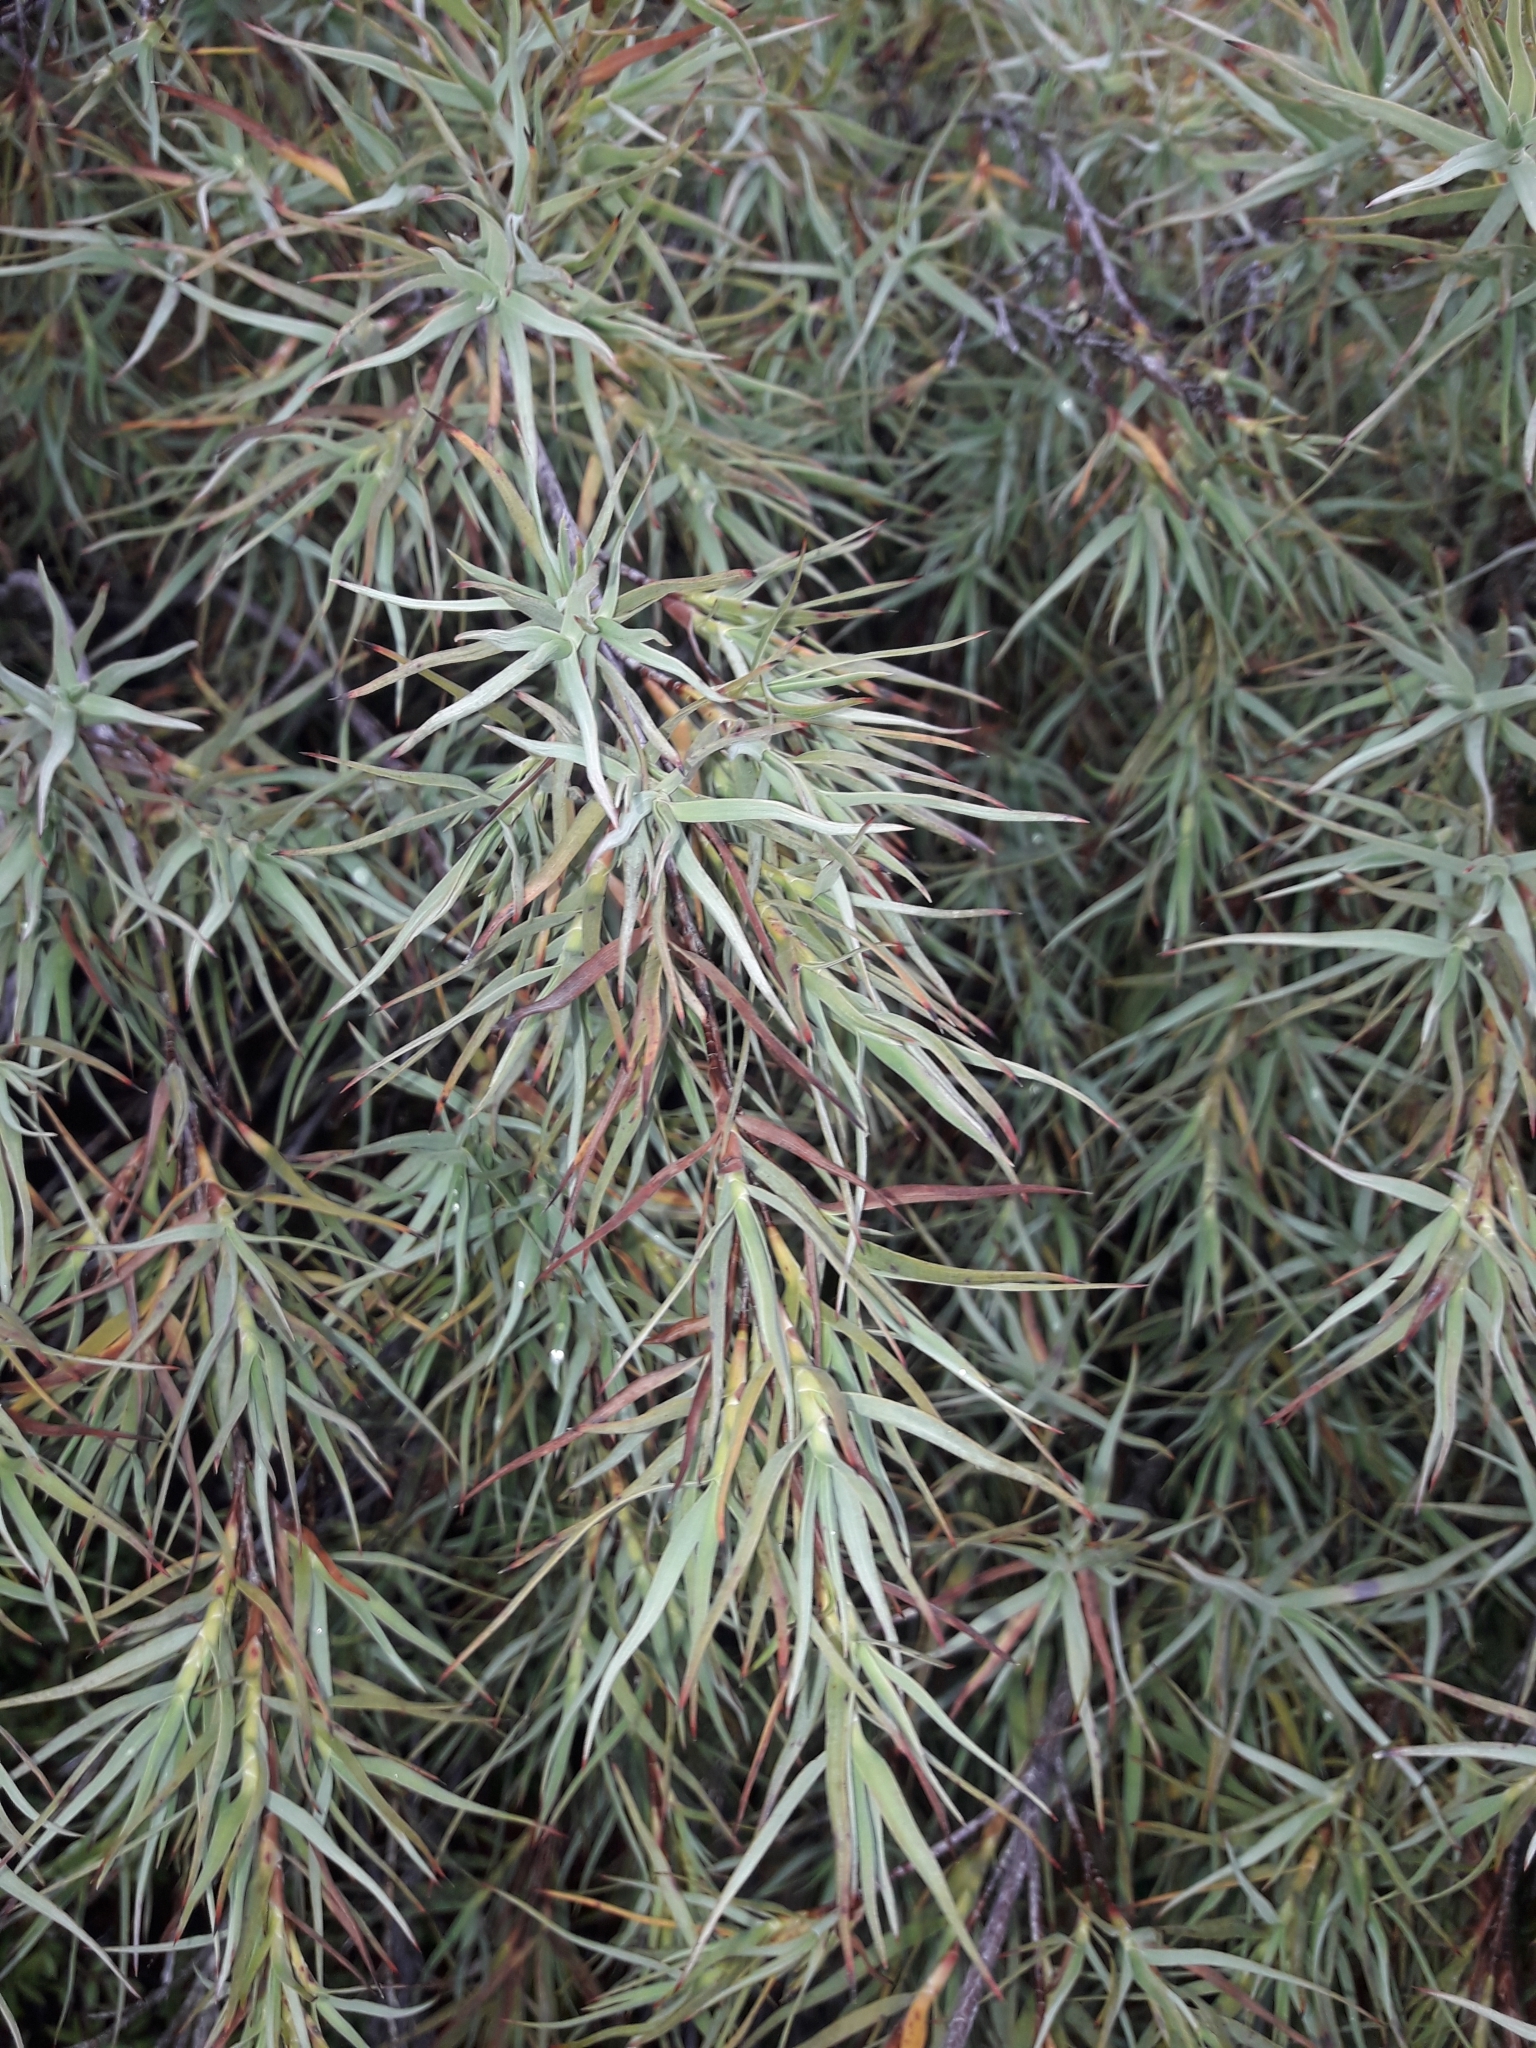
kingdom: Plantae
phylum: Tracheophyta
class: Magnoliopsida
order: Ericales
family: Ericaceae
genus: Dracophyllum
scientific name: Dracophyllum trimorphum
